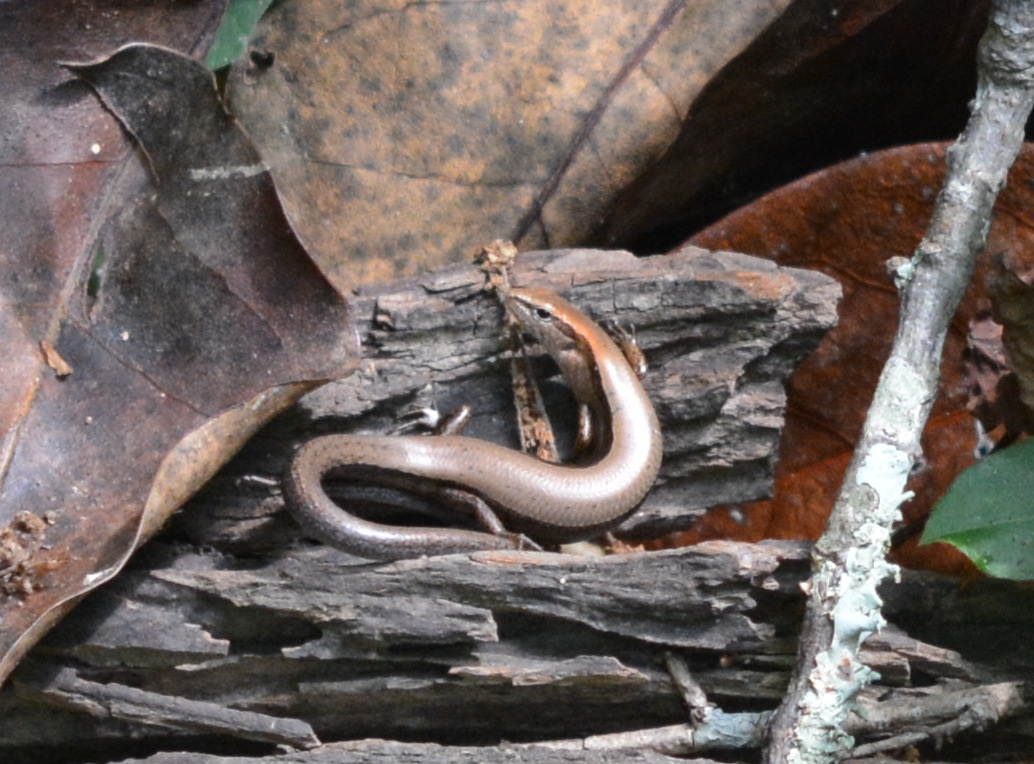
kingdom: Animalia
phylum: Chordata
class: Squamata
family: Scincidae
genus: Scincella
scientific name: Scincella lateralis
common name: Ground skink
